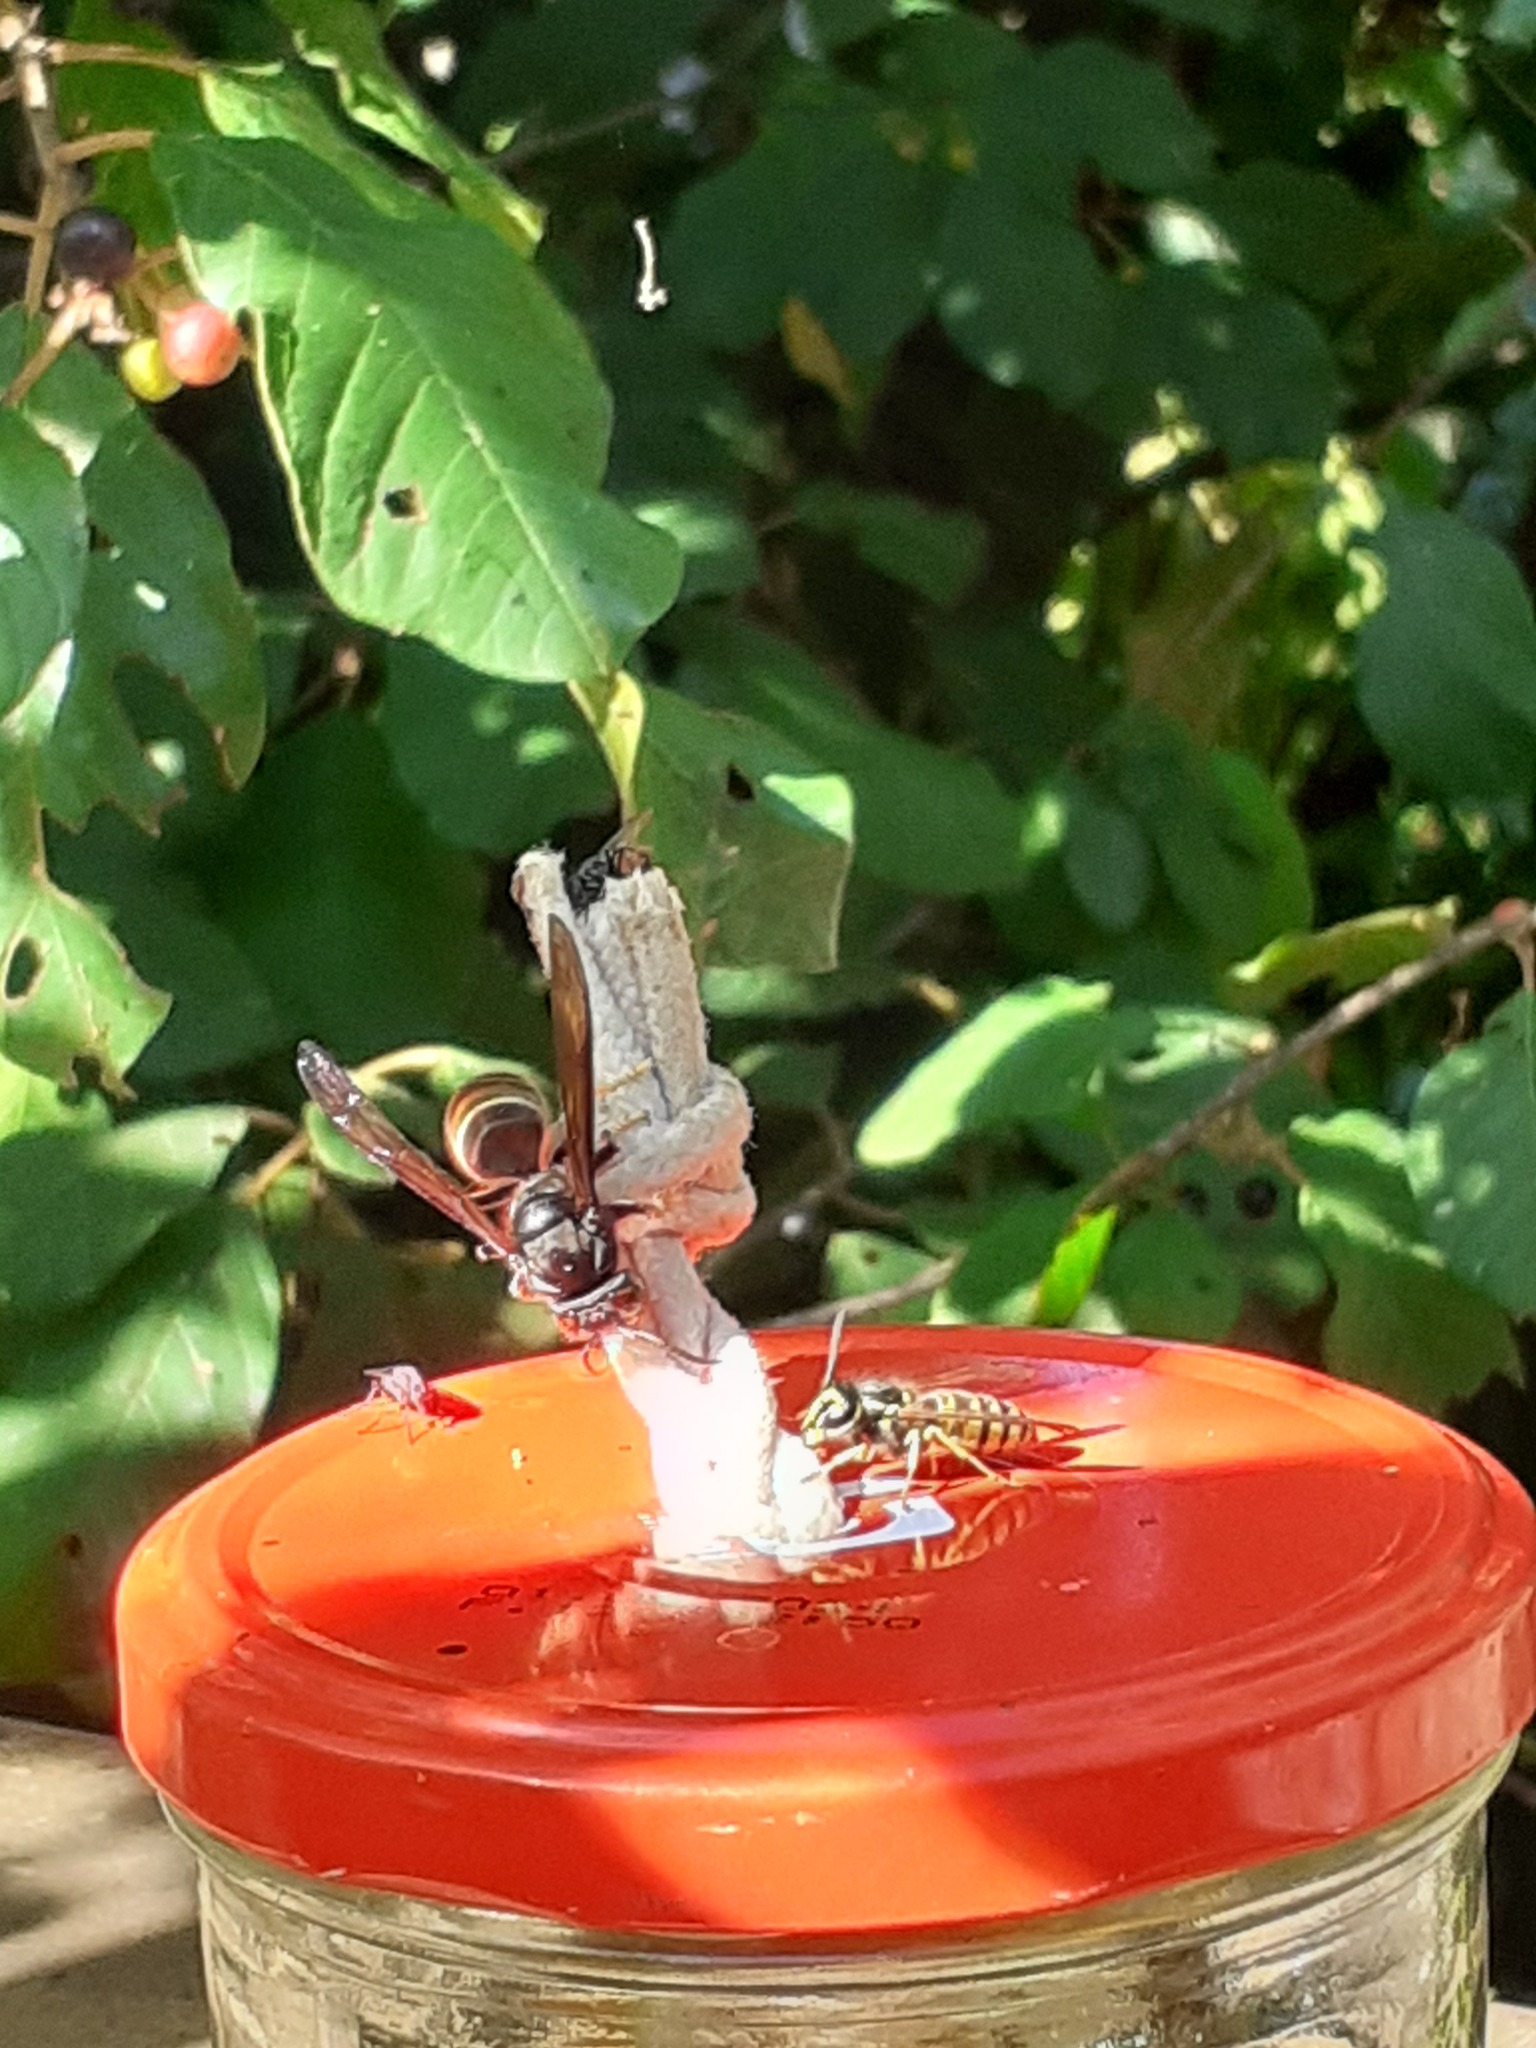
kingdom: Animalia
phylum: Arthropoda
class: Insecta
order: Hymenoptera
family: Vespidae
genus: Vespa
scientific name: Vespa velutina
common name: Asian hornet
